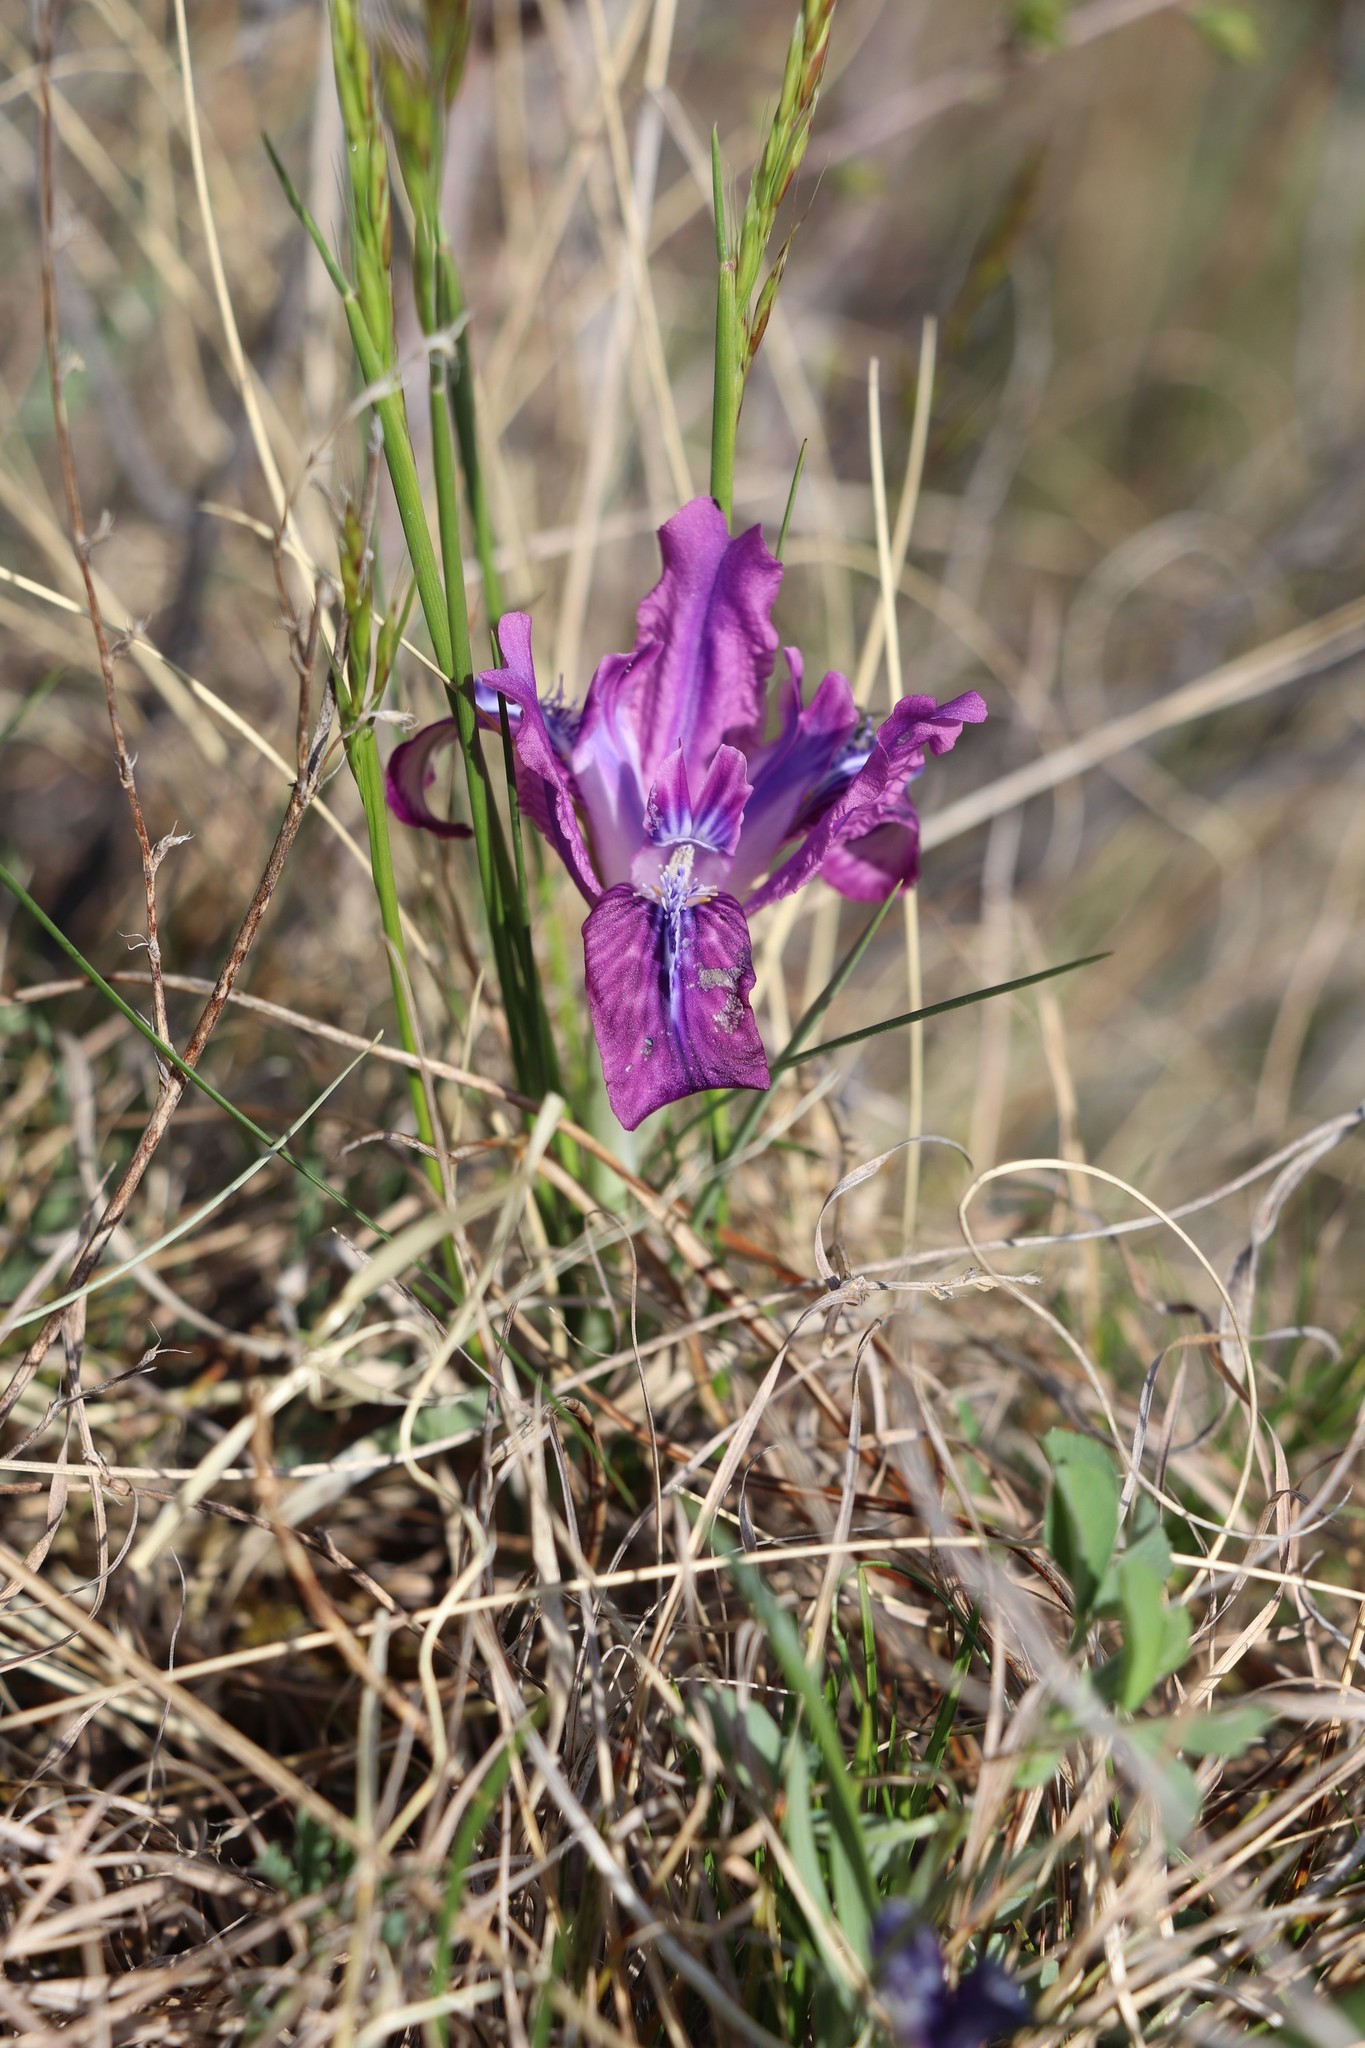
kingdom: Plantae
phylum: Tracheophyta
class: Liliopsida
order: Asparagales
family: Iridaceae
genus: Iris
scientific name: Iris tigridia
